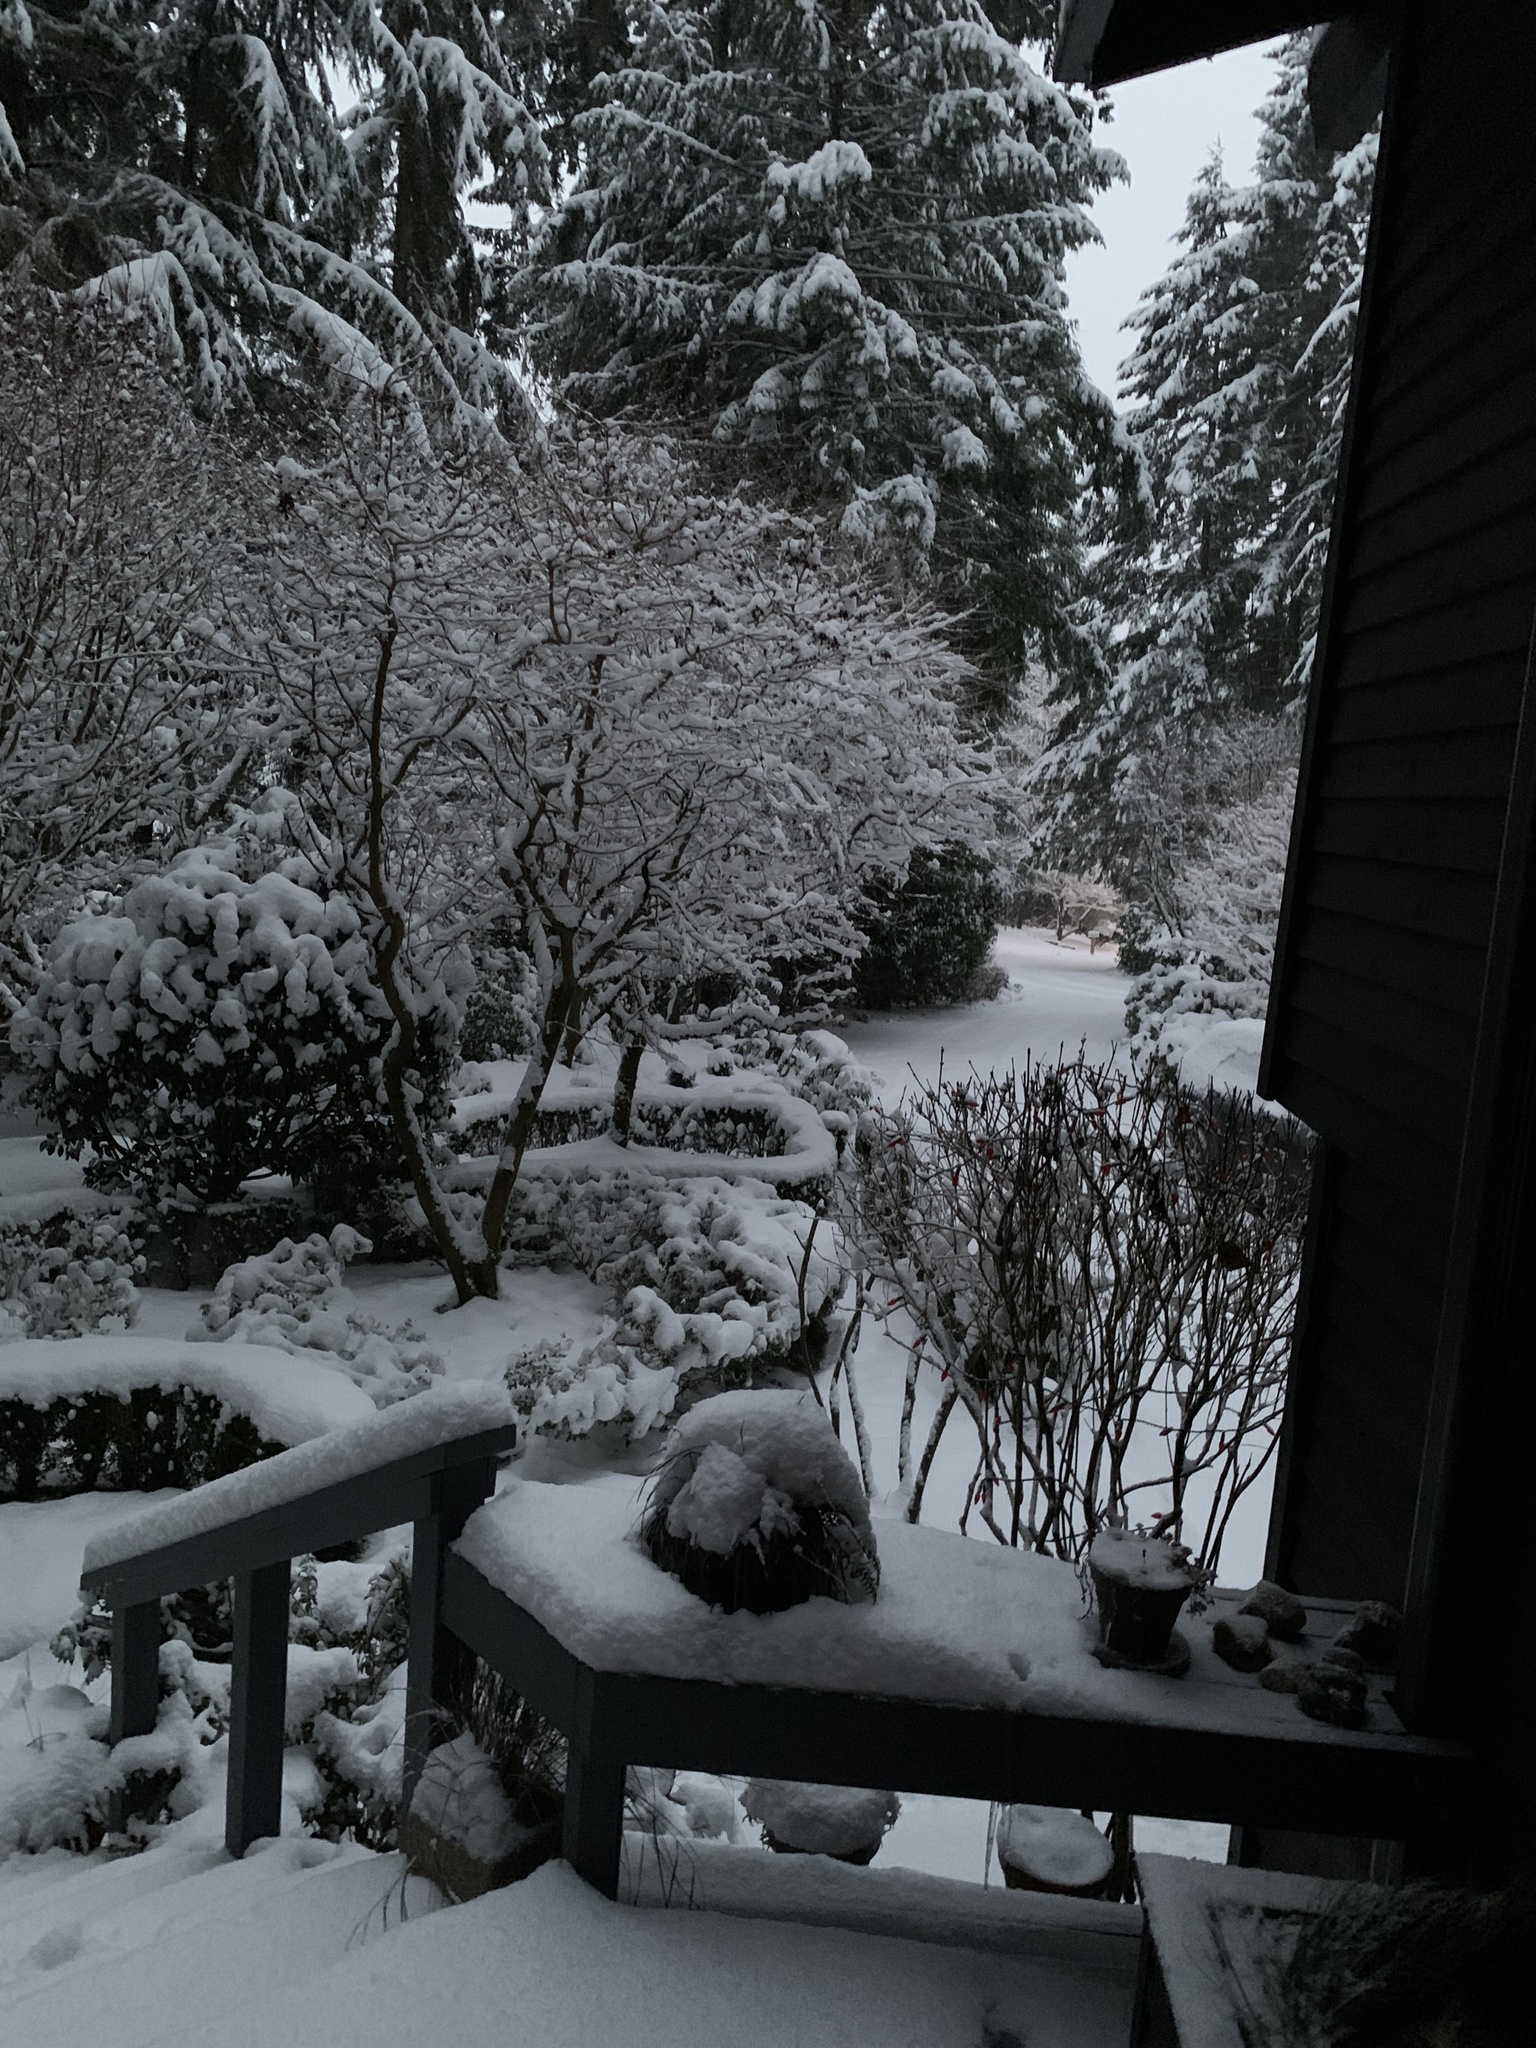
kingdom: Animalia
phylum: Arthropoda
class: Insecta
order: Lepidoptera
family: Geometridae
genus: Triphosa
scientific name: Triphosa haesitata
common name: Tissue moth
